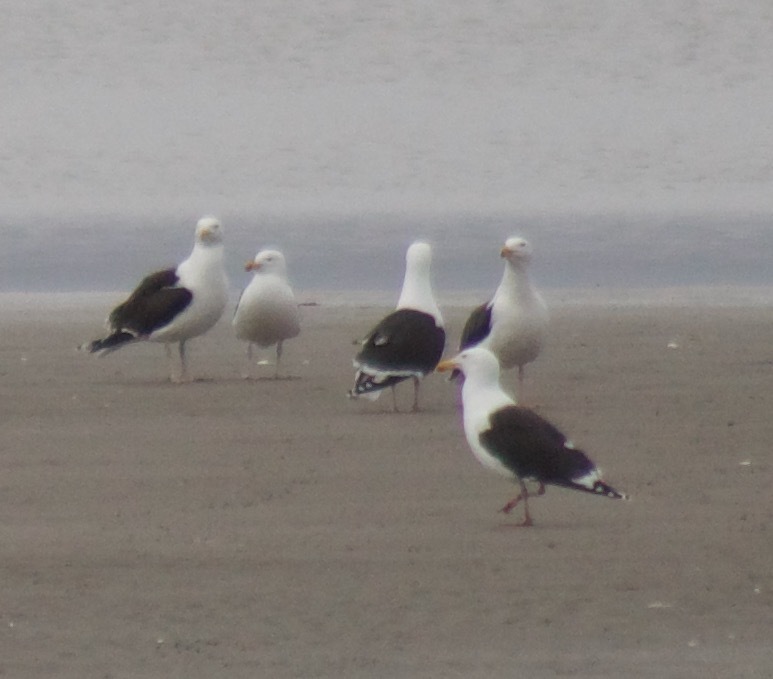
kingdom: Animalia
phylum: Chordata
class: Aves
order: Charadriiformes
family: Laridae
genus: Larus
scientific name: Larus marinus
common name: Great black-backed gull
